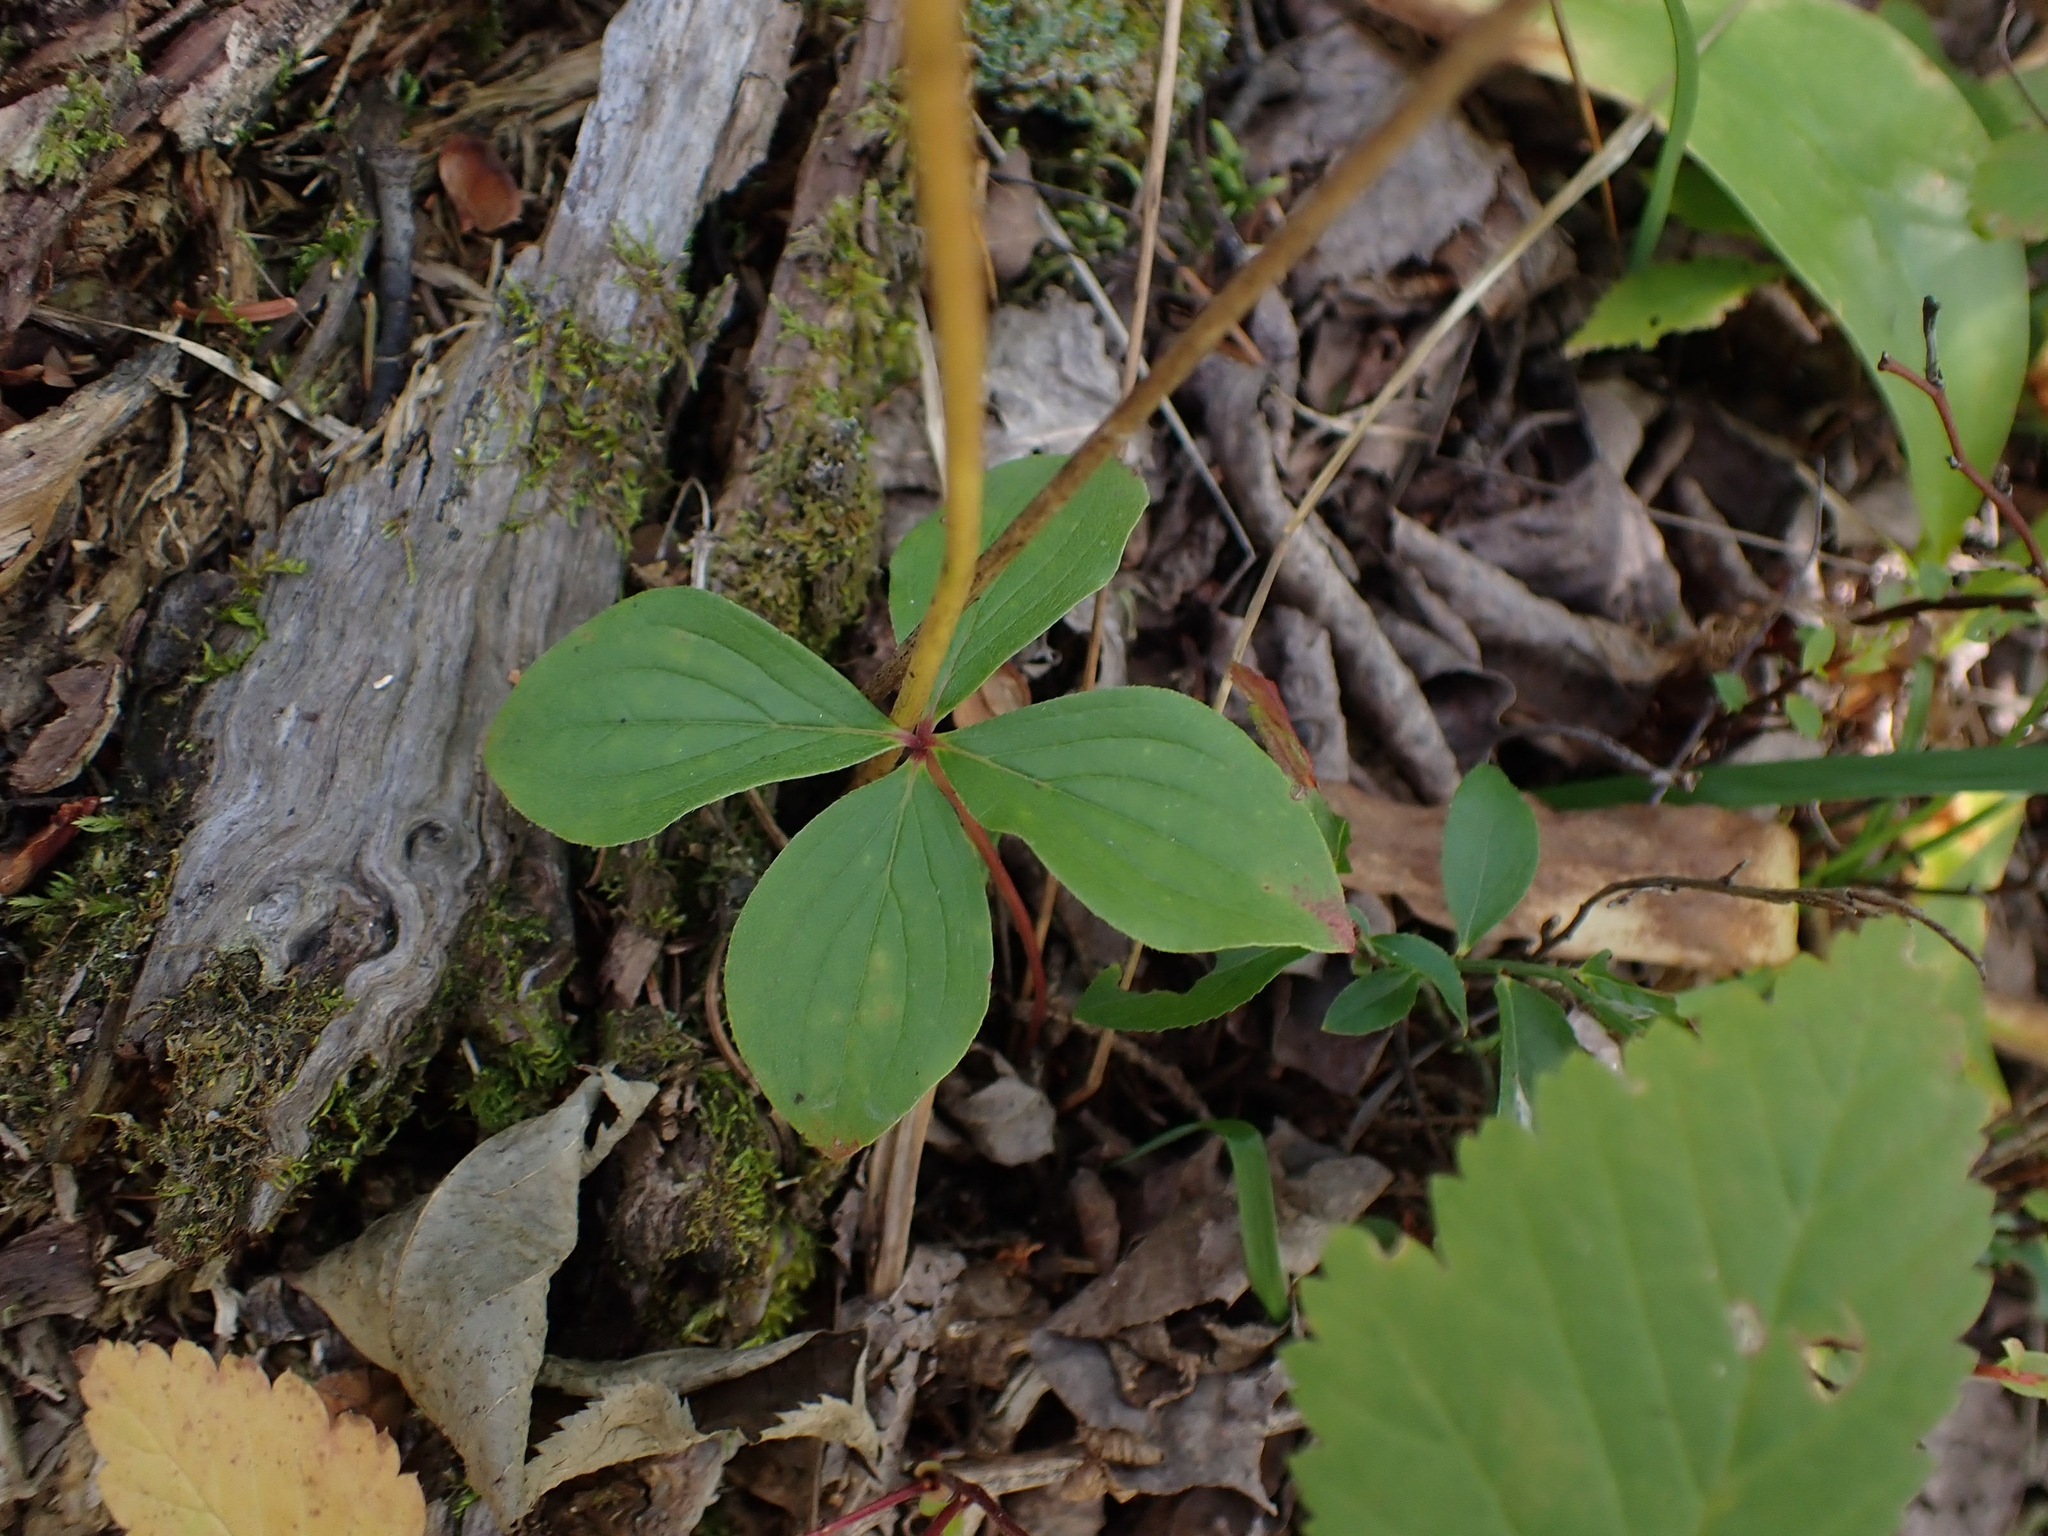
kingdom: Plantae
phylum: Tracheophyta
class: Magnoliopsida
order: Cornales
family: Cornaceae
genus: Cornus
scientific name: Cornus canadensis
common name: Creeping dogwood
